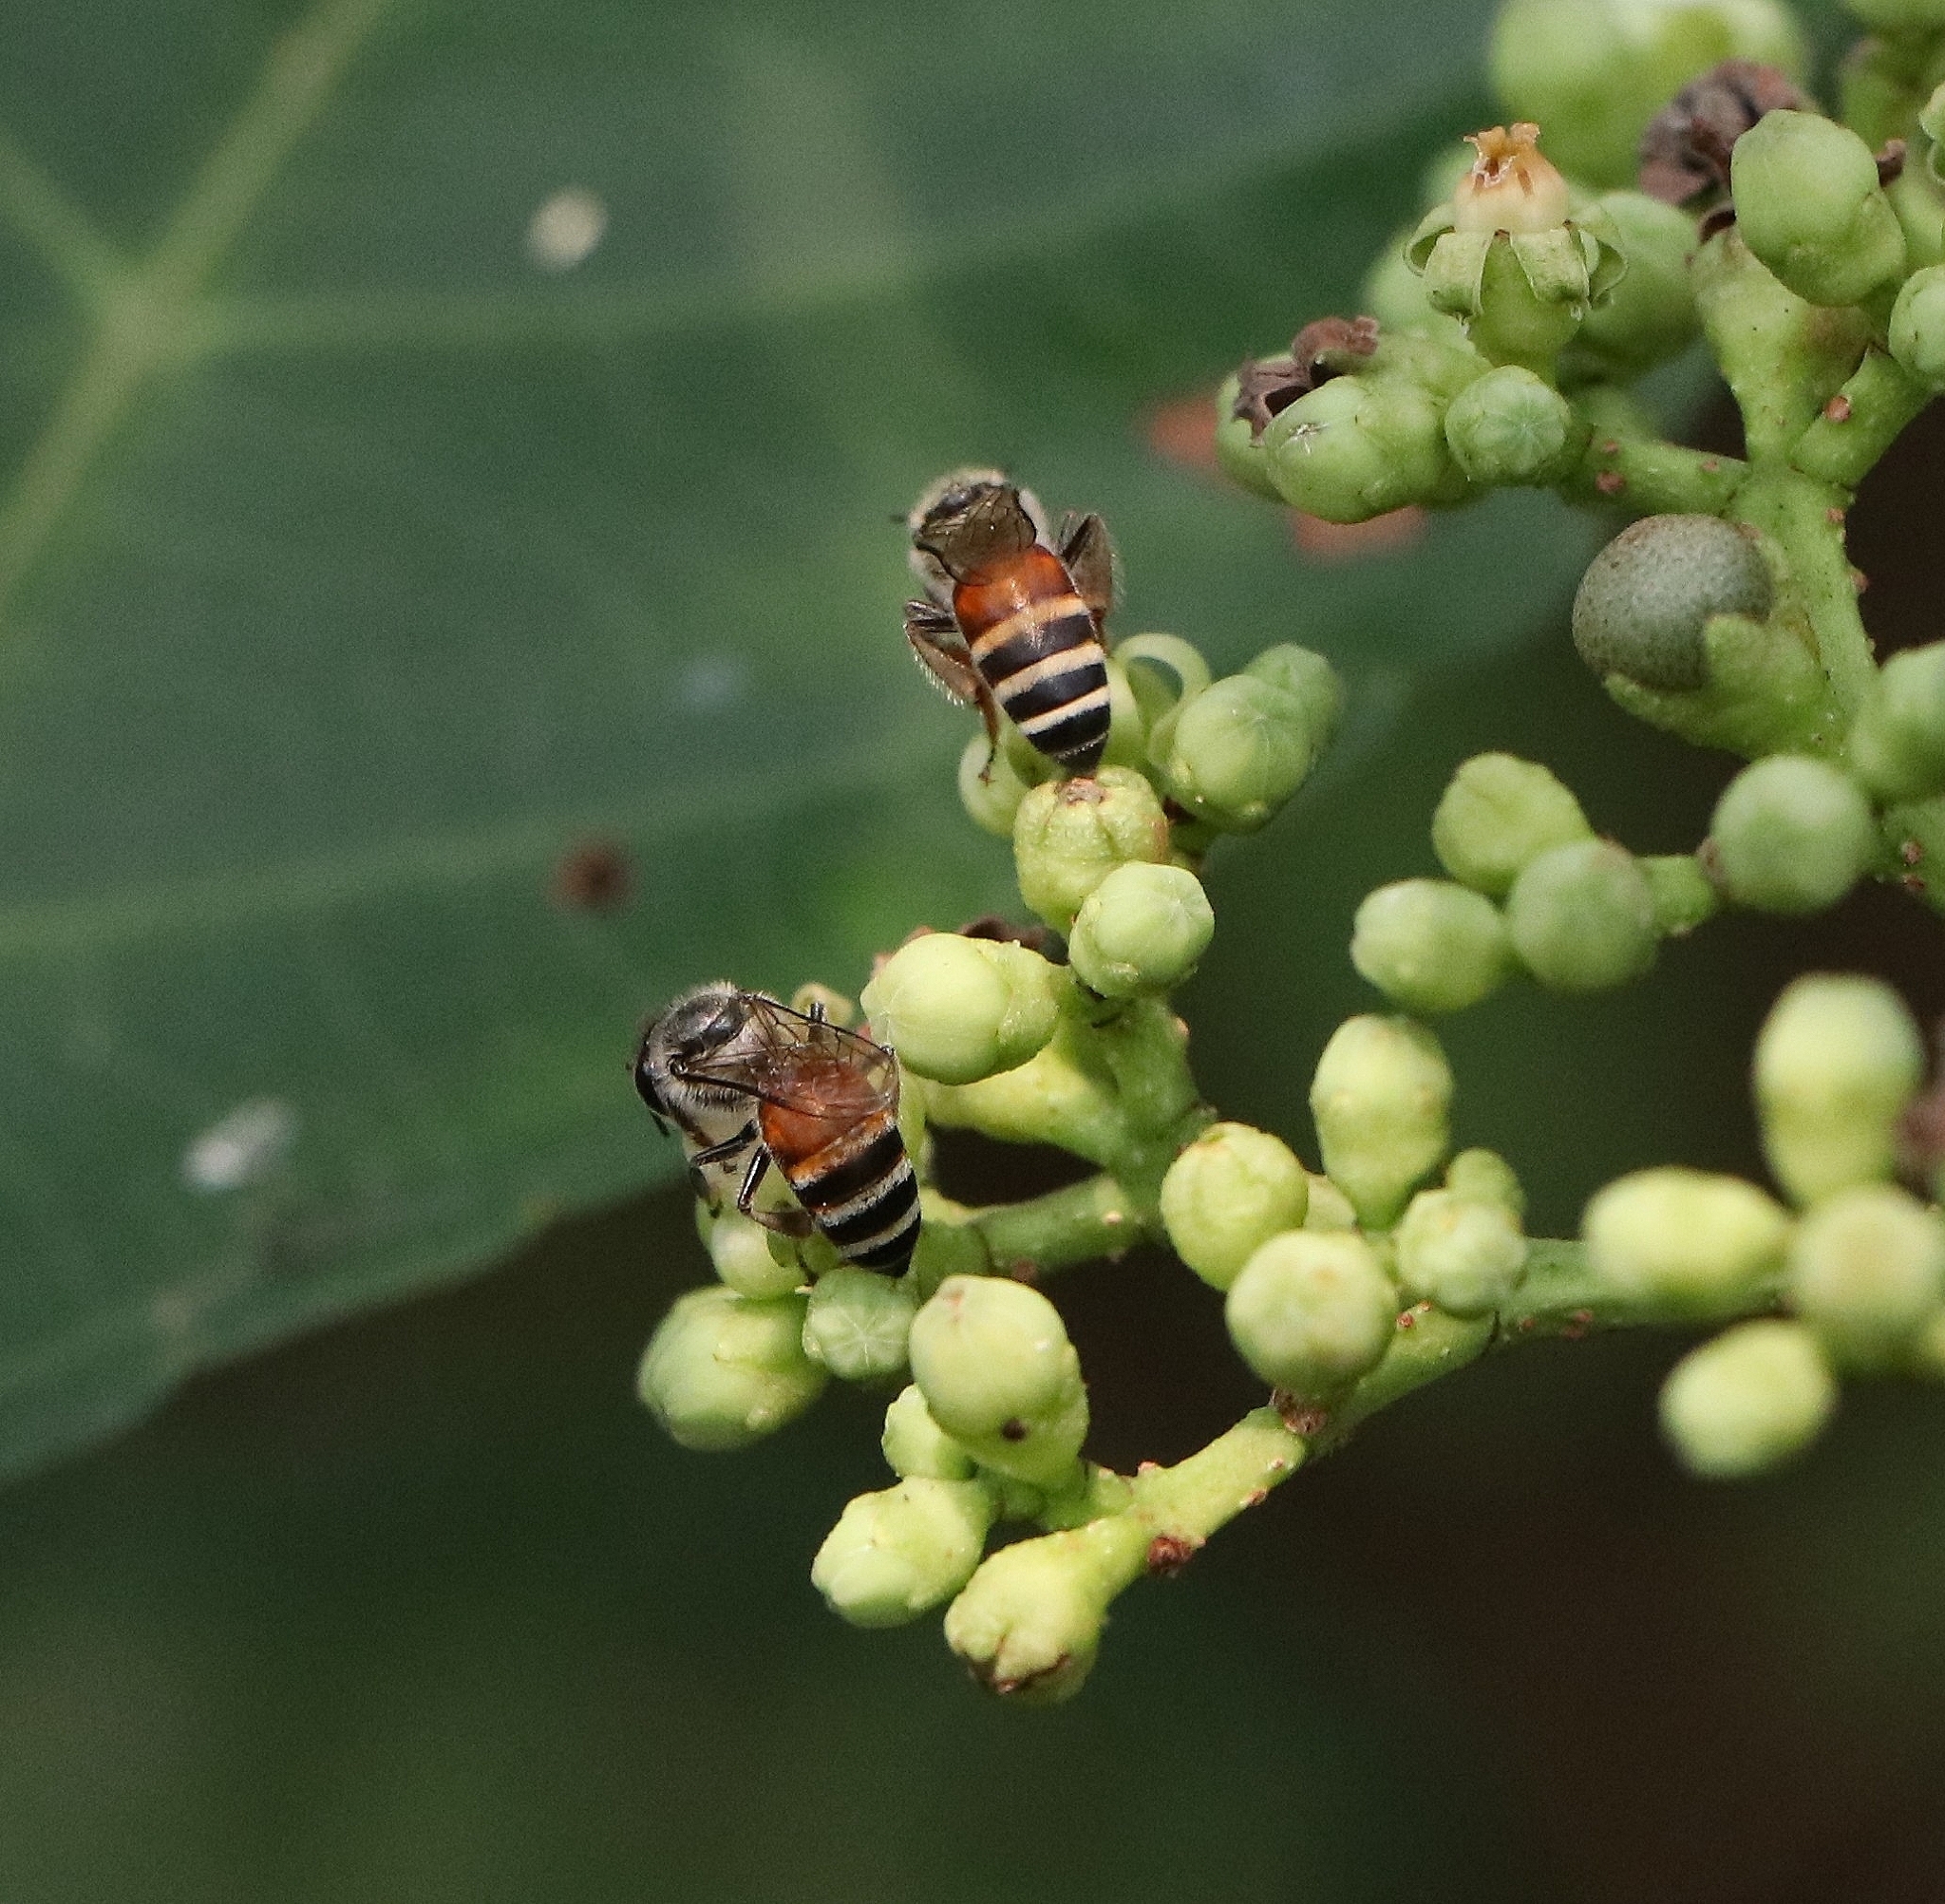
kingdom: Animalia
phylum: Arthropoda
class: Insecta
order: Hymenoptera
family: Apidae
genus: Apis
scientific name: Apis florea
